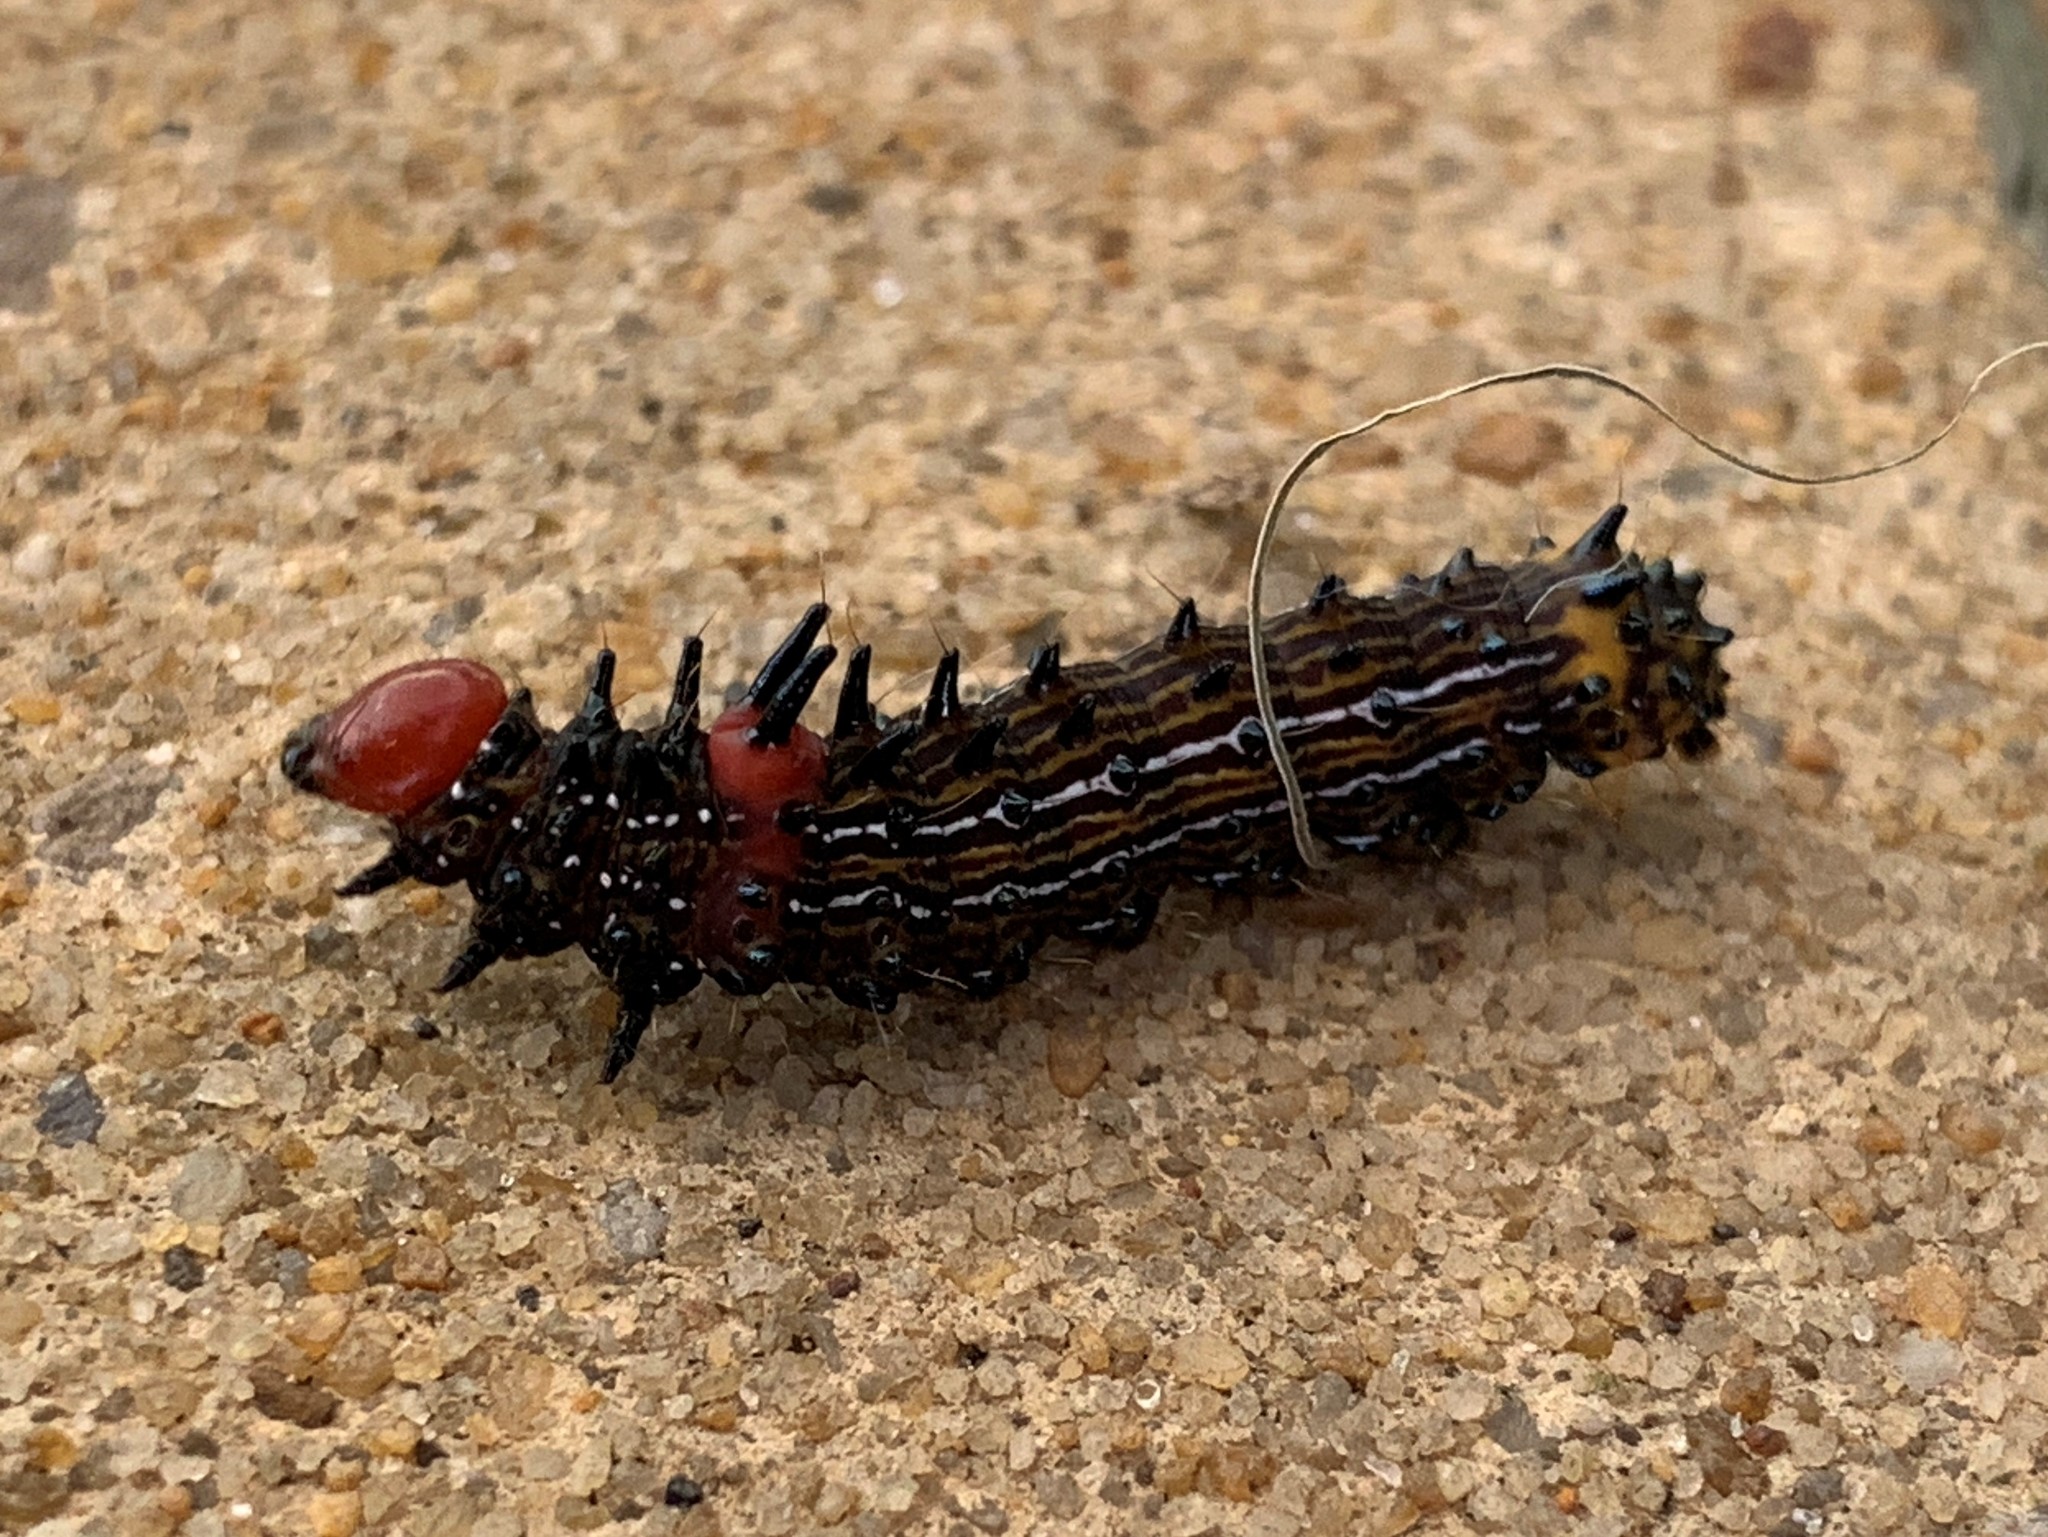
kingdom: Animalia
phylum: Arthropoda
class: Insecta
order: Lepidoptera
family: Notodontidae
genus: Schizura
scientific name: Schizura
